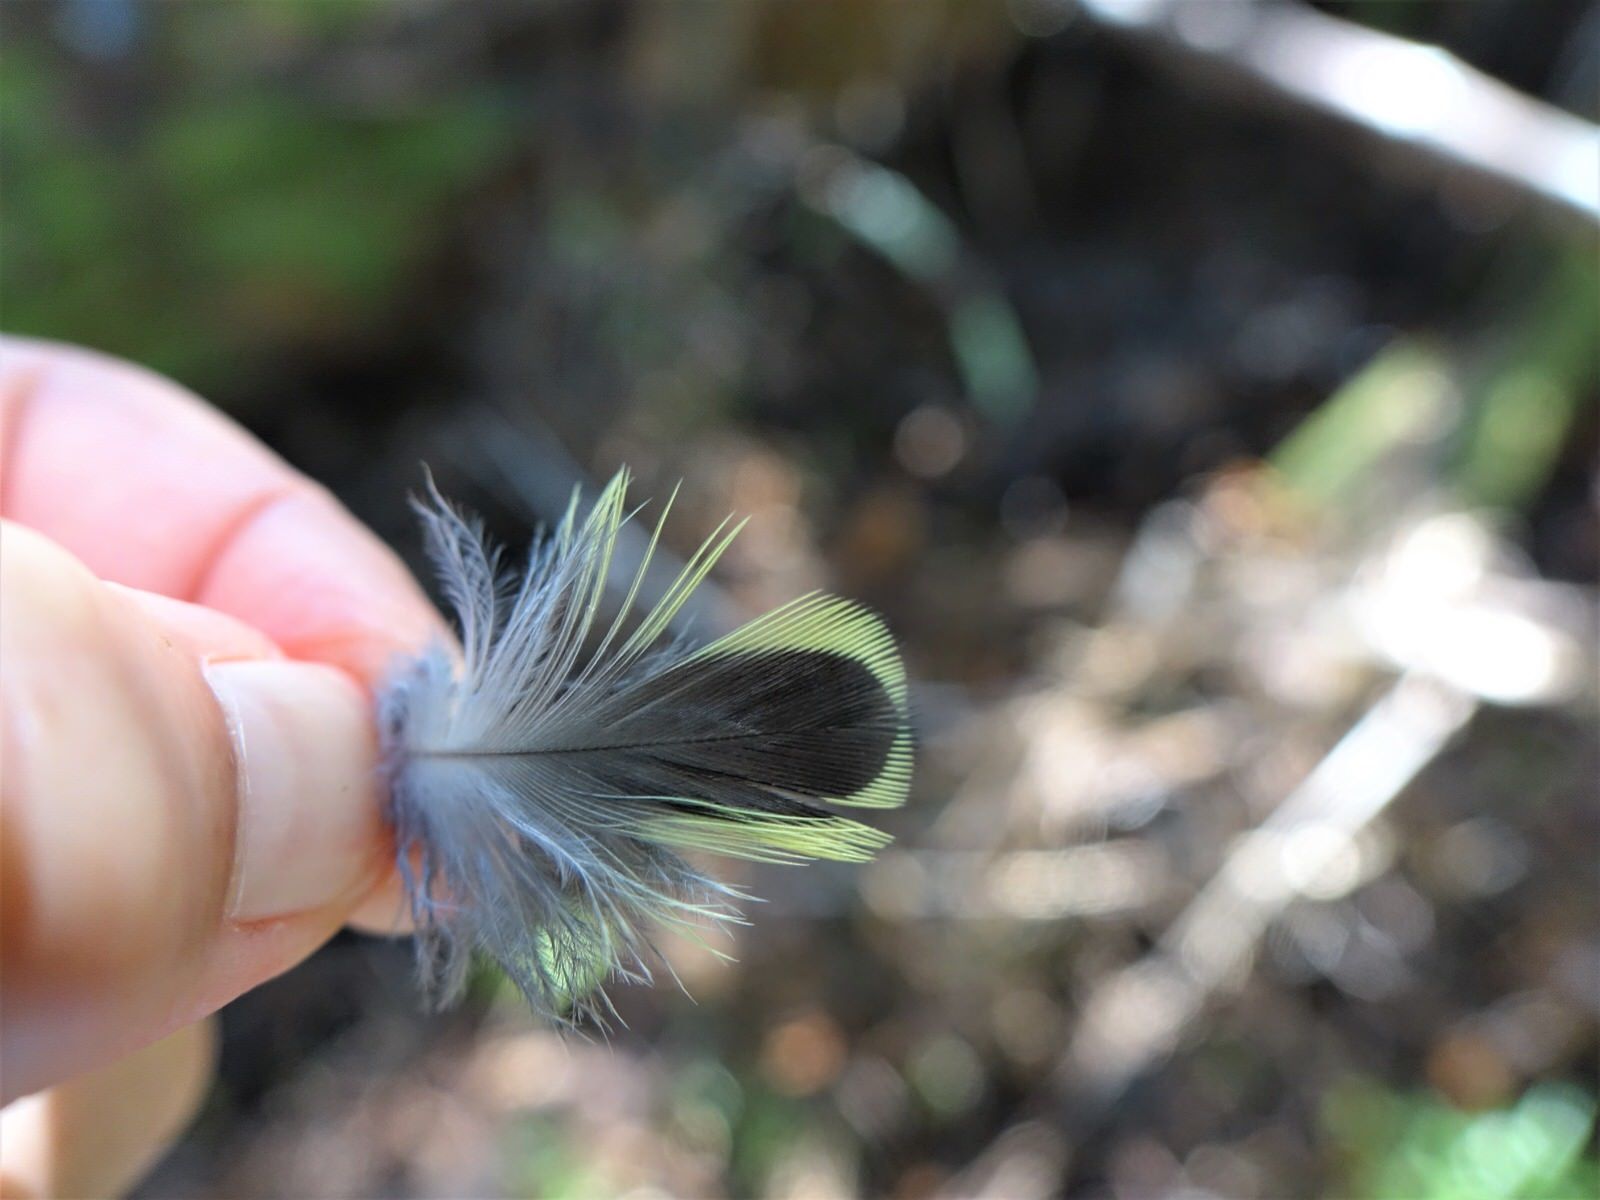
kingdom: Animalia
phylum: Chordata
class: Aves
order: Psittaciformes
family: Psittacidae
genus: Platycercus
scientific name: Platycercus eximius
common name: Eastern rosella
